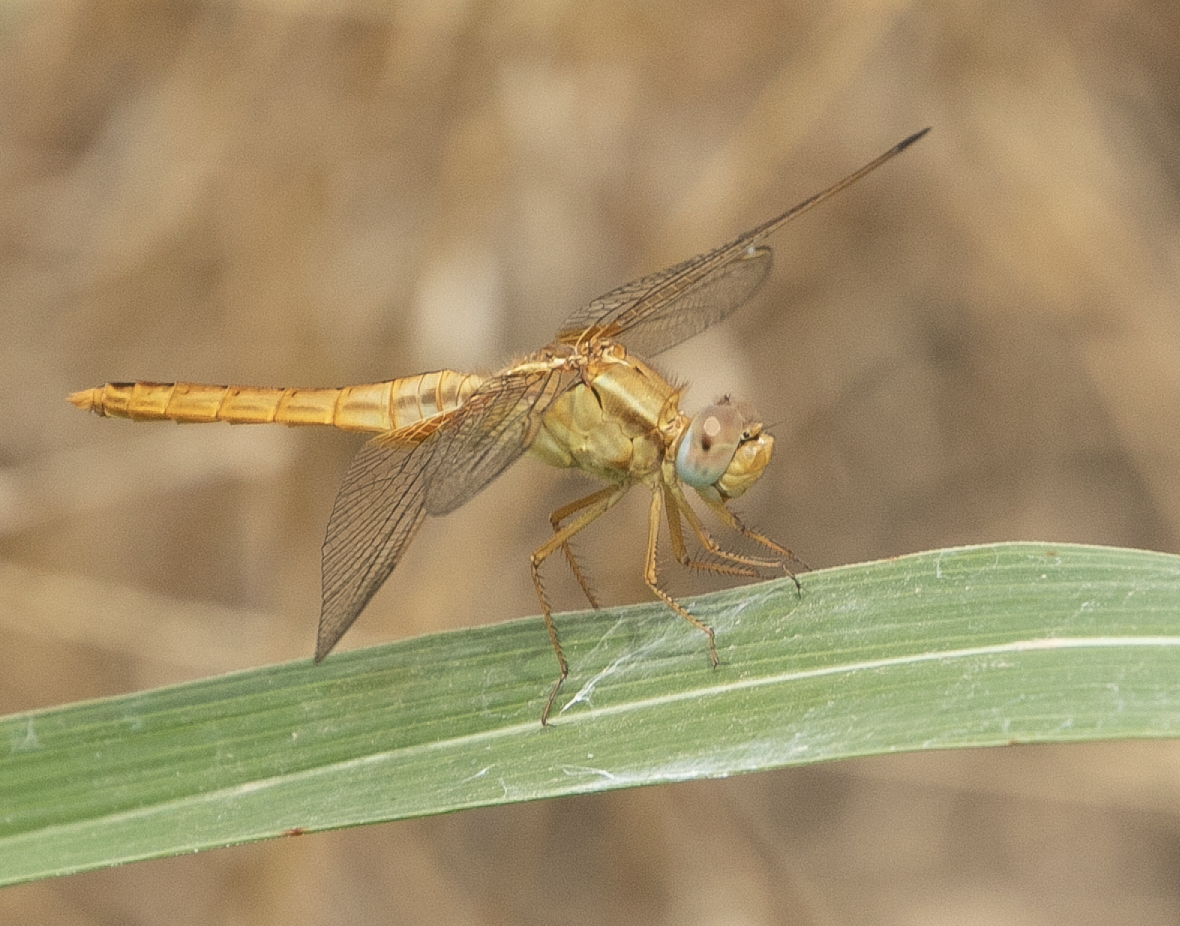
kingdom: Animalia
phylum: Arthropoda
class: Insecta
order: Odonata
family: Libellulidae
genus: Crocothemis
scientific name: Crocothemis erythraea
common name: Scarlet dragonfly
